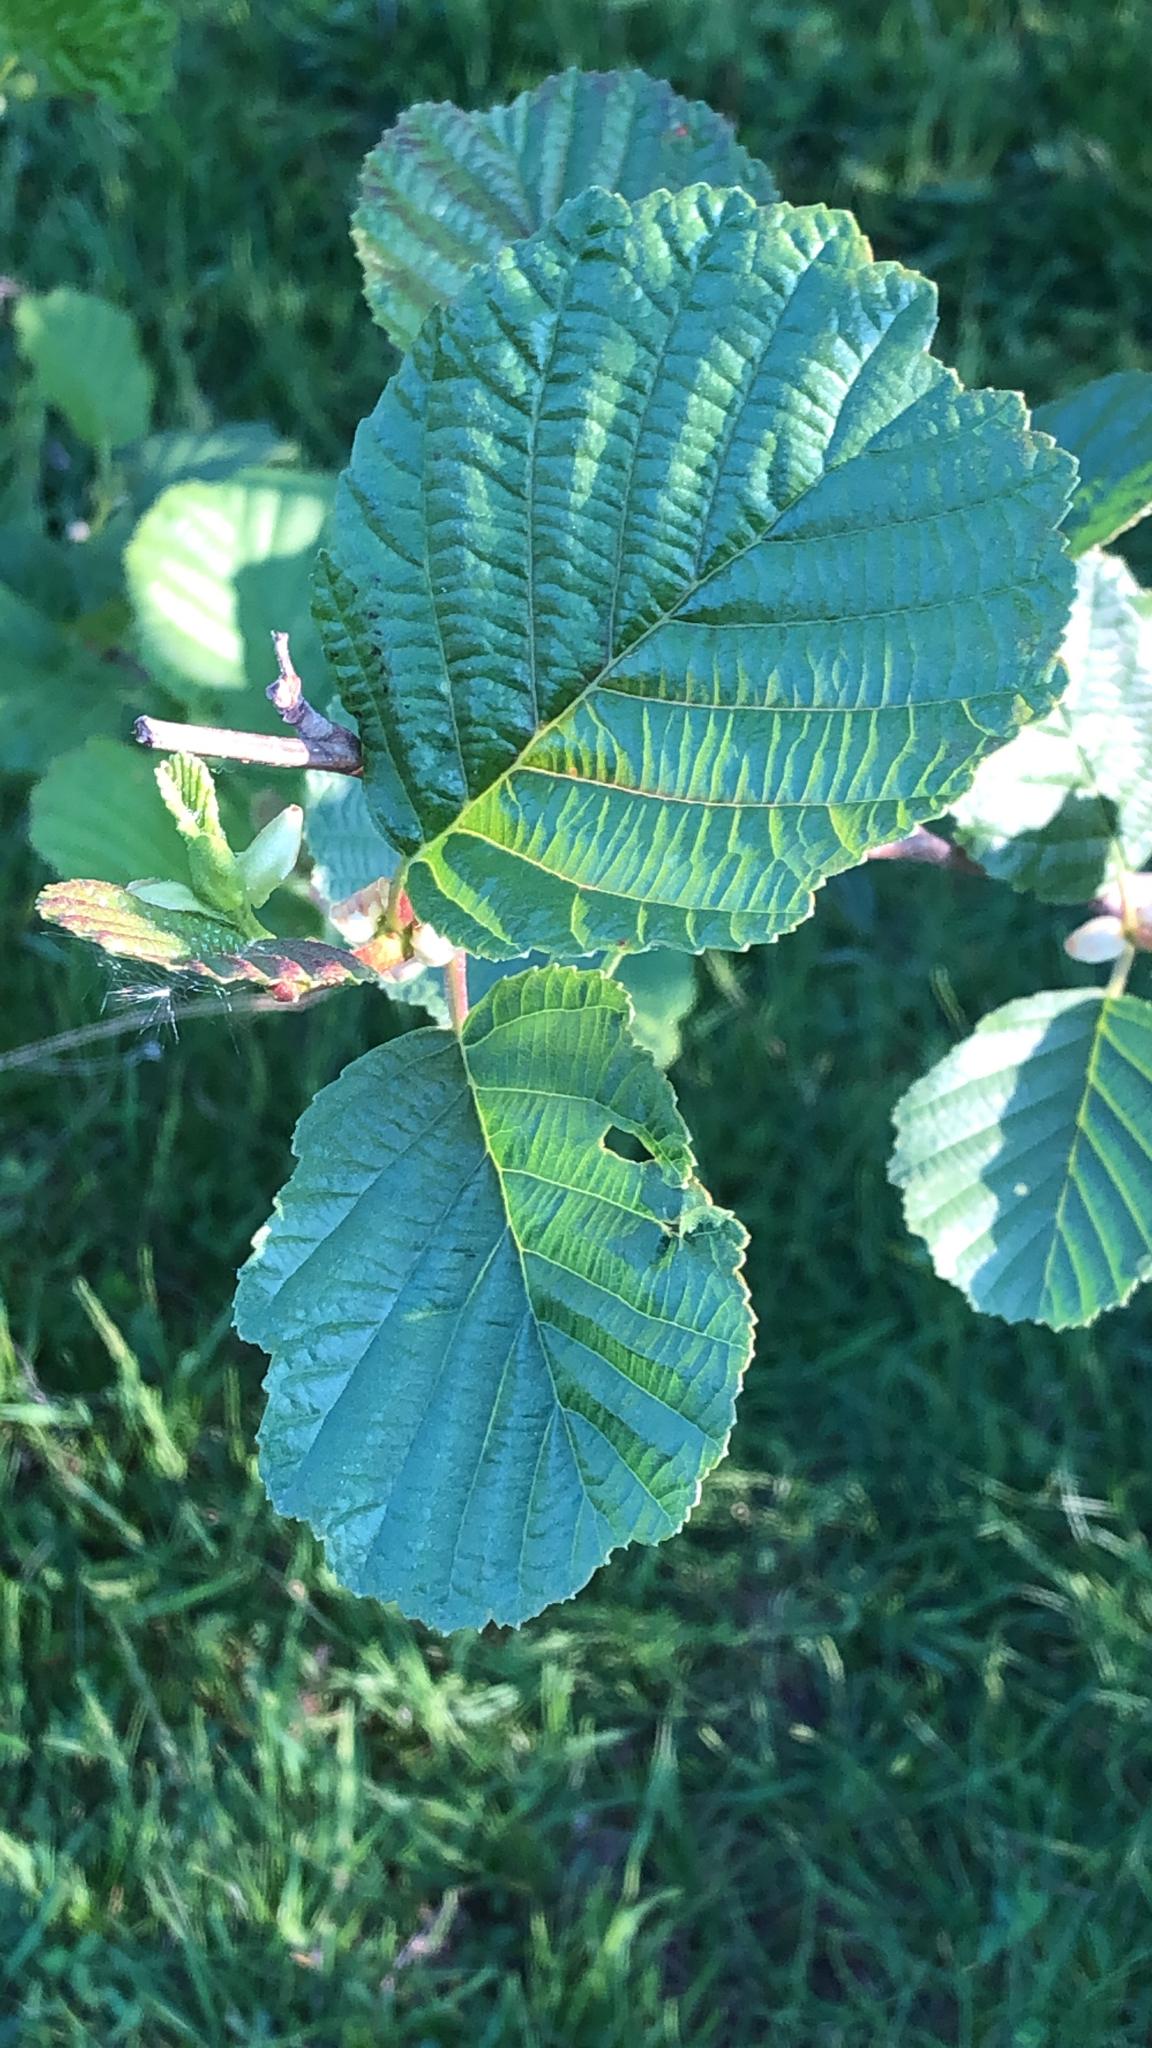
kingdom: Plantae
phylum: Tracheophyta
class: Magnoliopsida
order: Fagales
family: Betulaceae
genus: Alnus
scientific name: Alnus glutinosa
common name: Black alder
